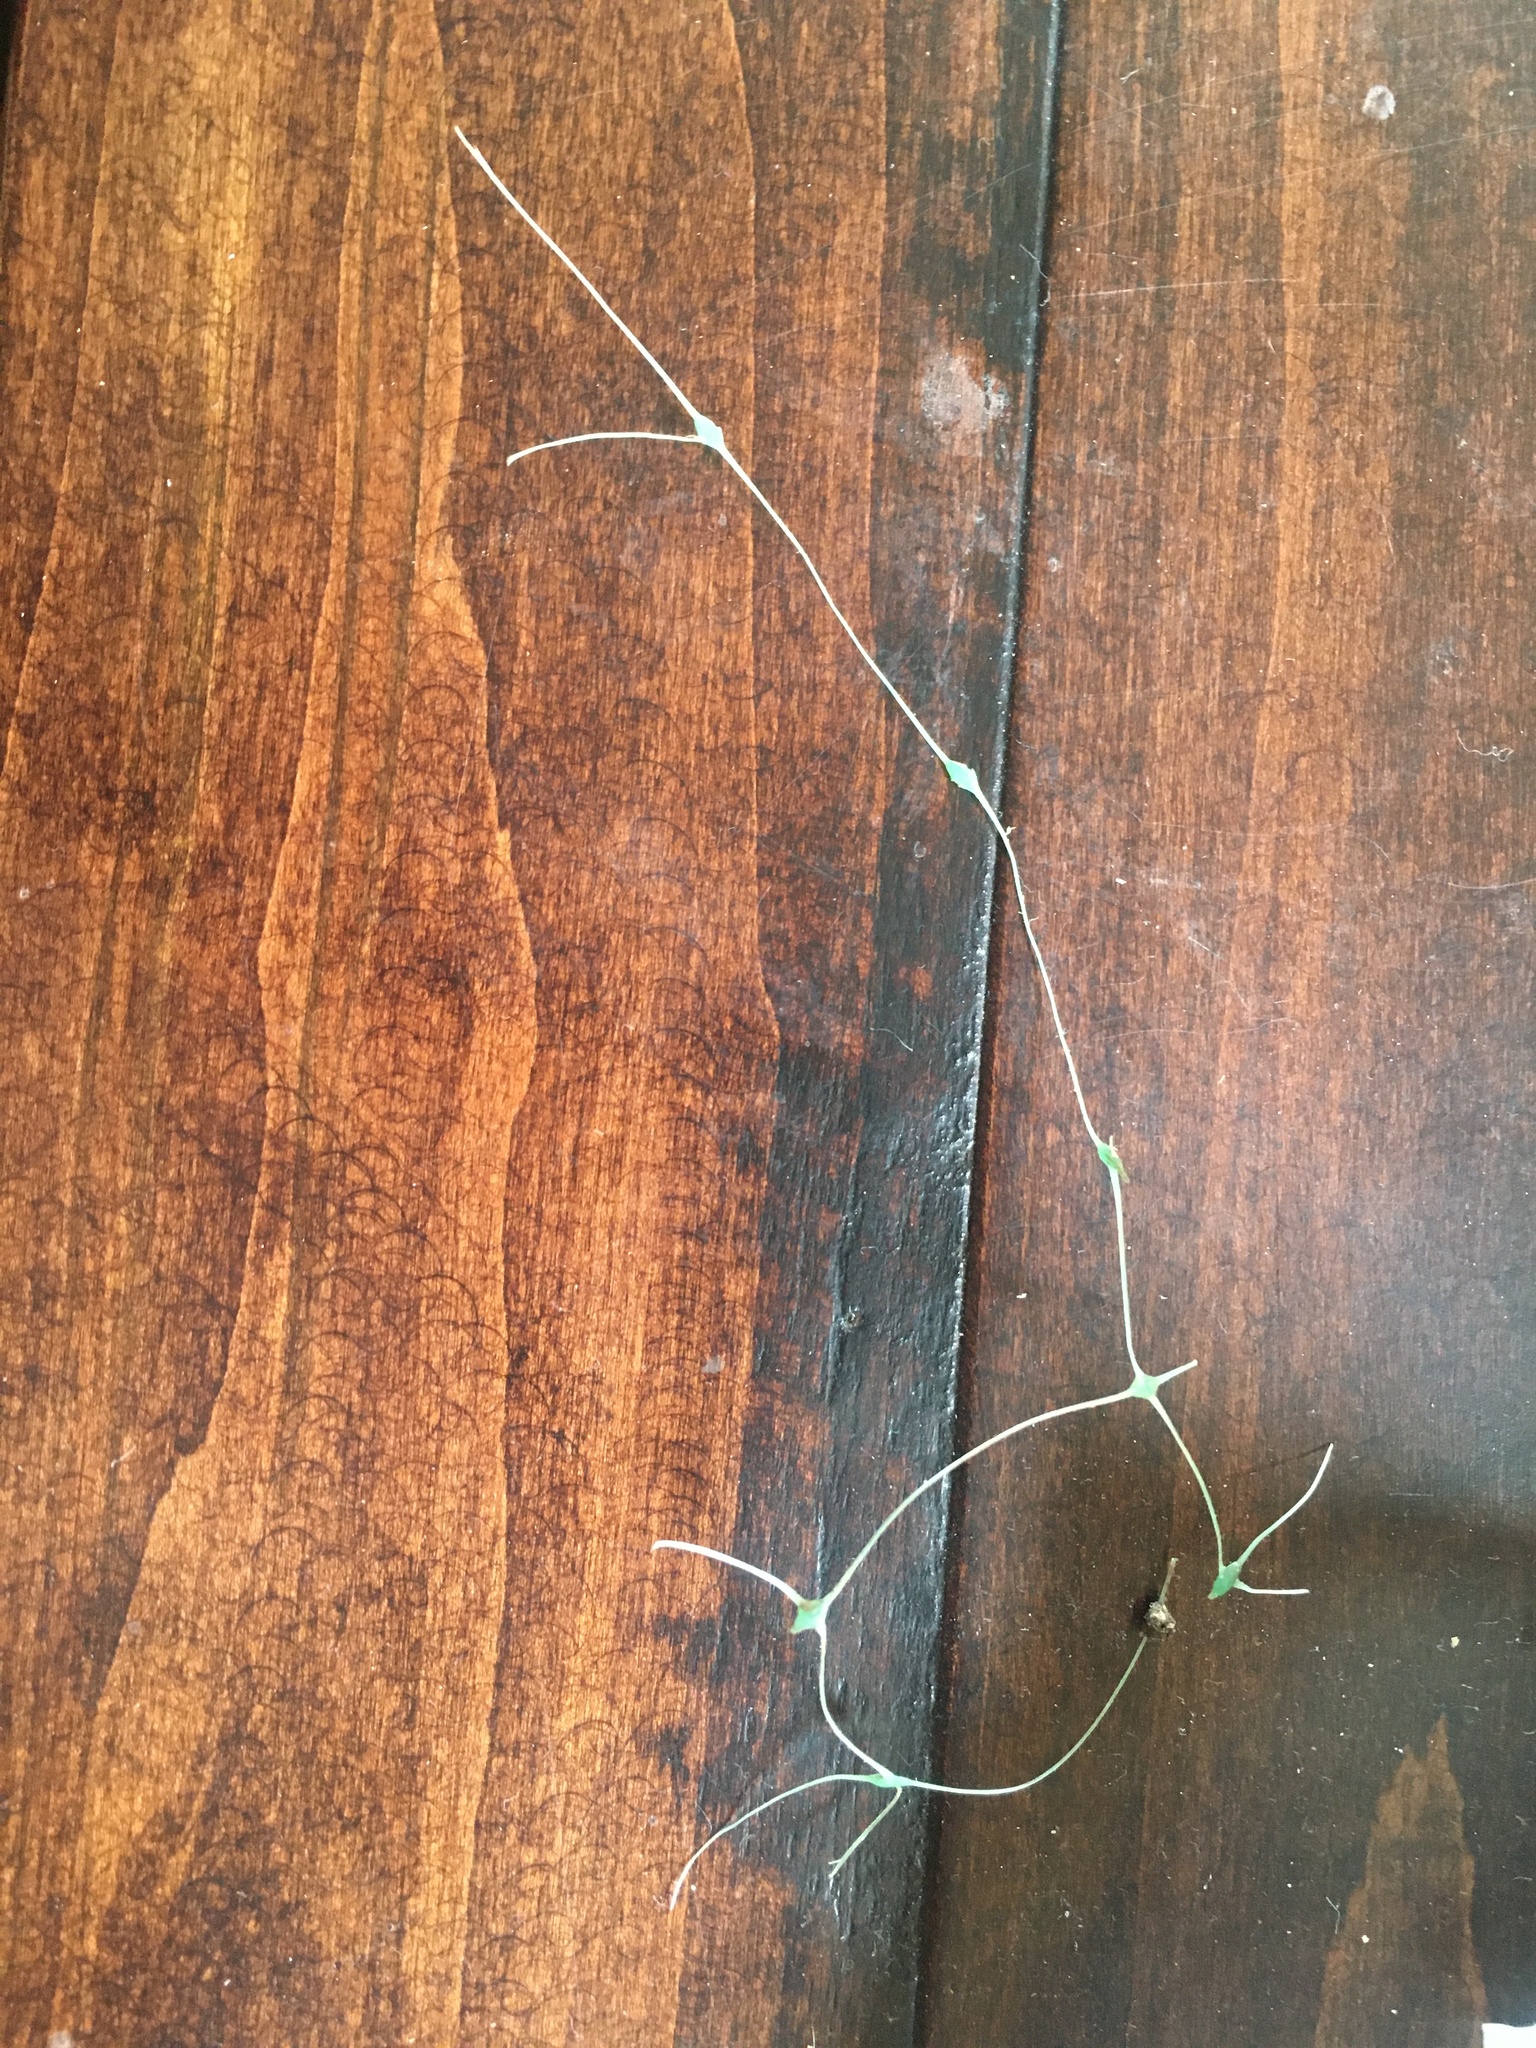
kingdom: Animalia
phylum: Chordata
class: Squamata
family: Viperidae
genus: Crotalus
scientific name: Crotalus ruber
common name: Red diamond rattlesnake
